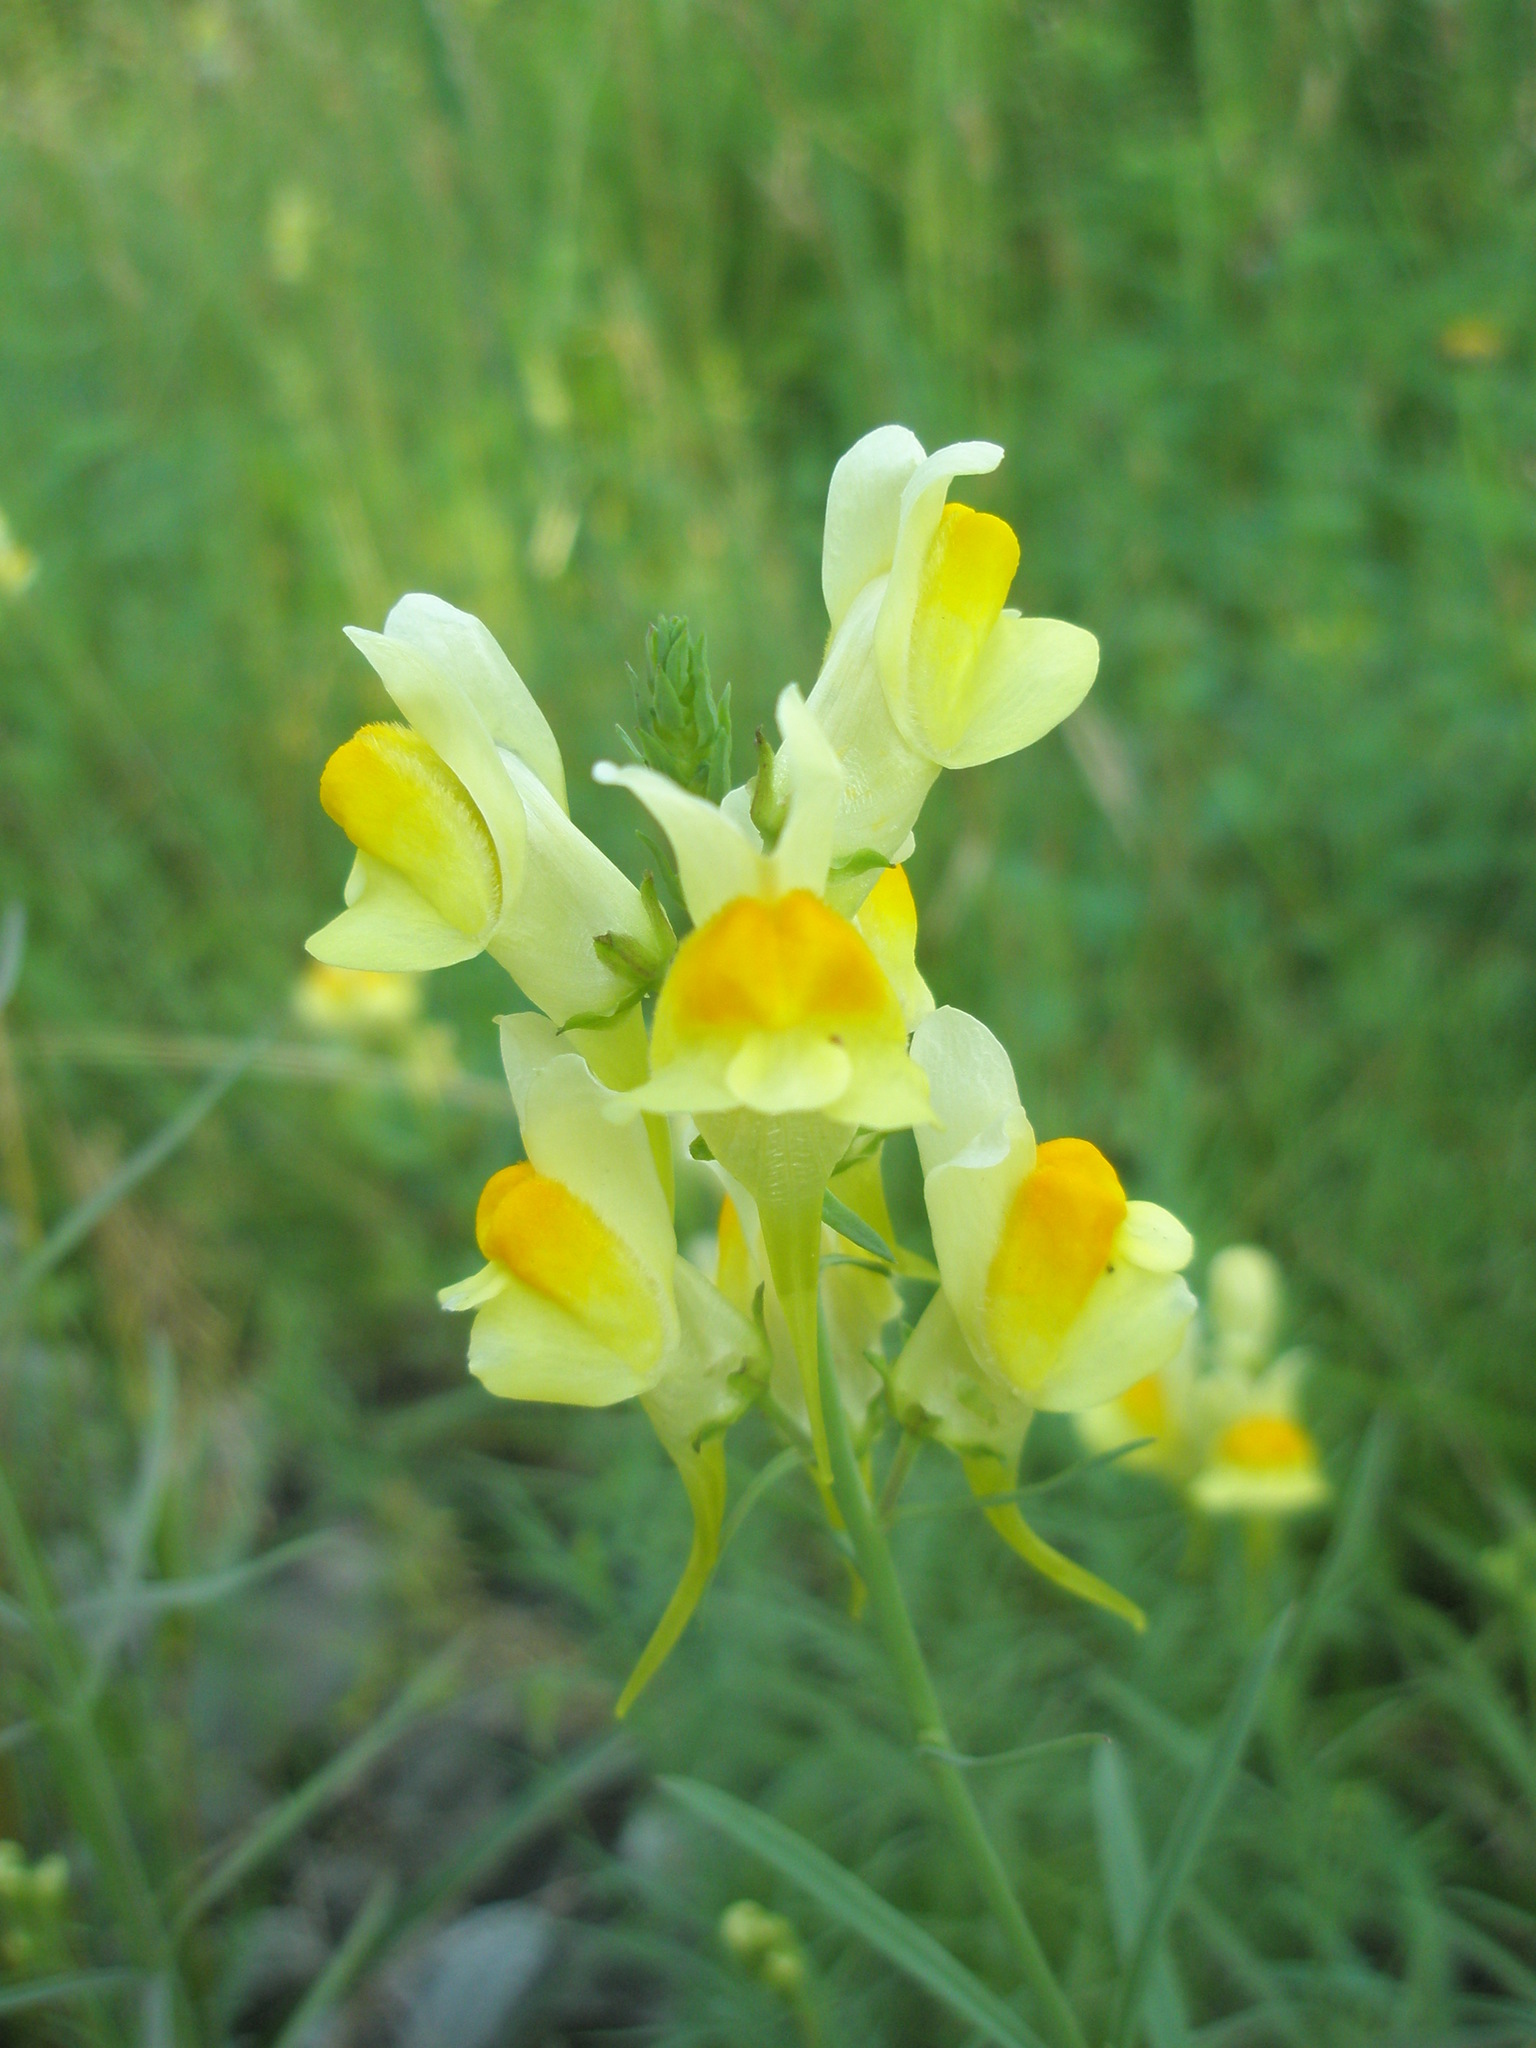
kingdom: Plantae
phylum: Tracheophyta
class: Magnoliopsida
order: Lamiales
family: Plantaginaceae
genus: Linaria
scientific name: Linaria vulgaris
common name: Butter and eggs
